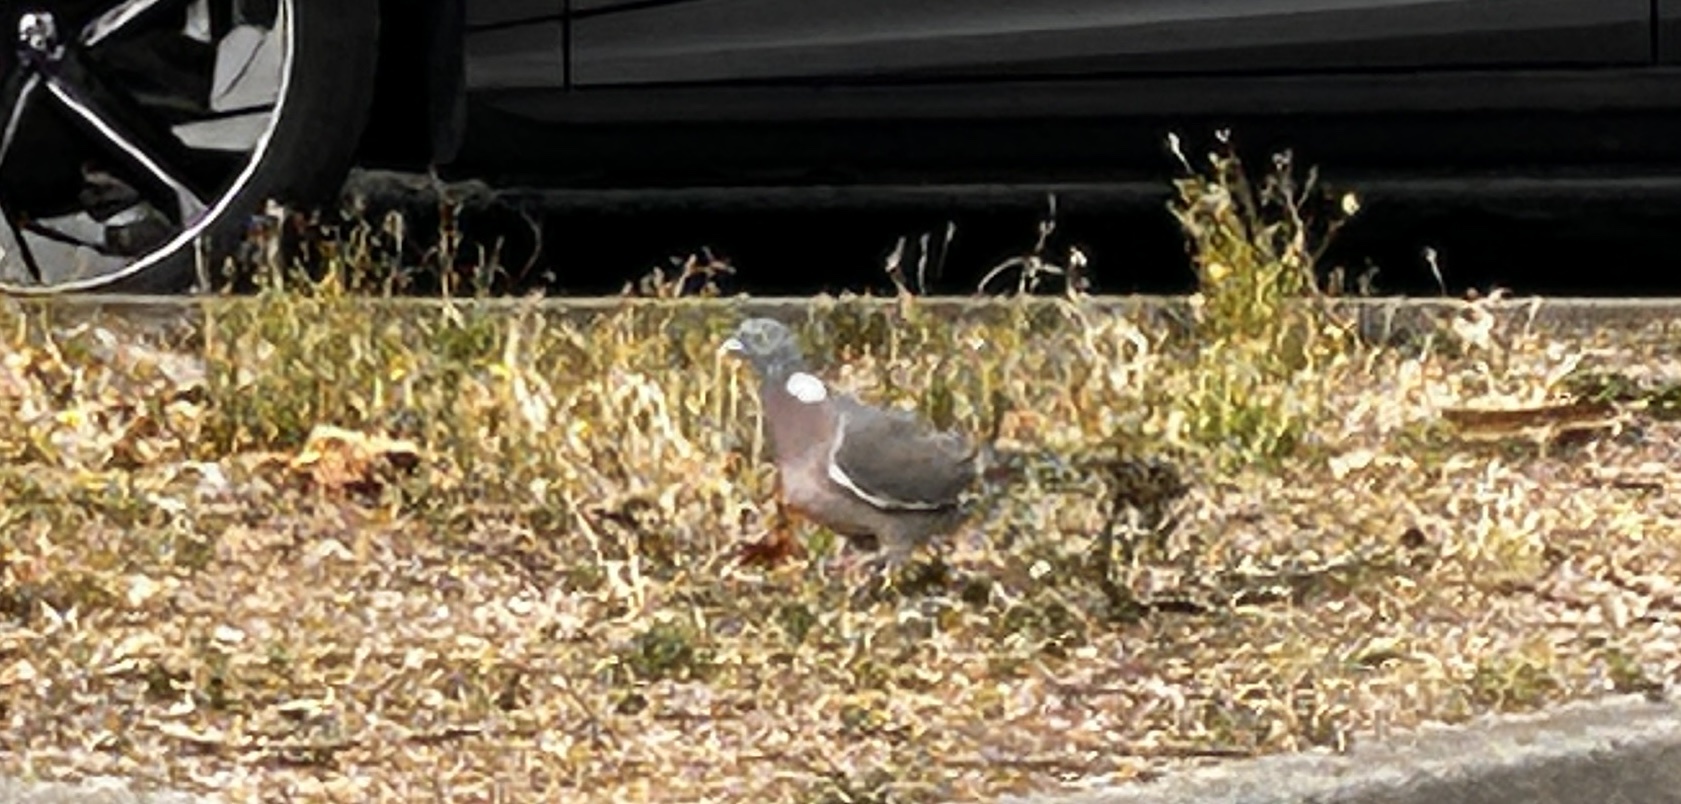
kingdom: Animalia
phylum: Chordata
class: Aves
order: Columbiformes
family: Columbidae
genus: Columba
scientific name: Columba palumbus
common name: Common wood pigeon
